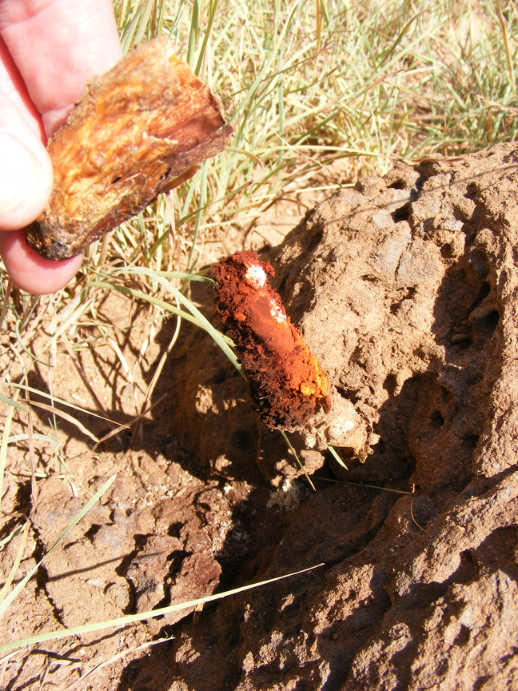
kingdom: Fungi
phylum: Basidiomycota
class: Agaricomycetes
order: Agaricales
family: Agaricaceae
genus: Podaxis
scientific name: Podaxis pistillaris
